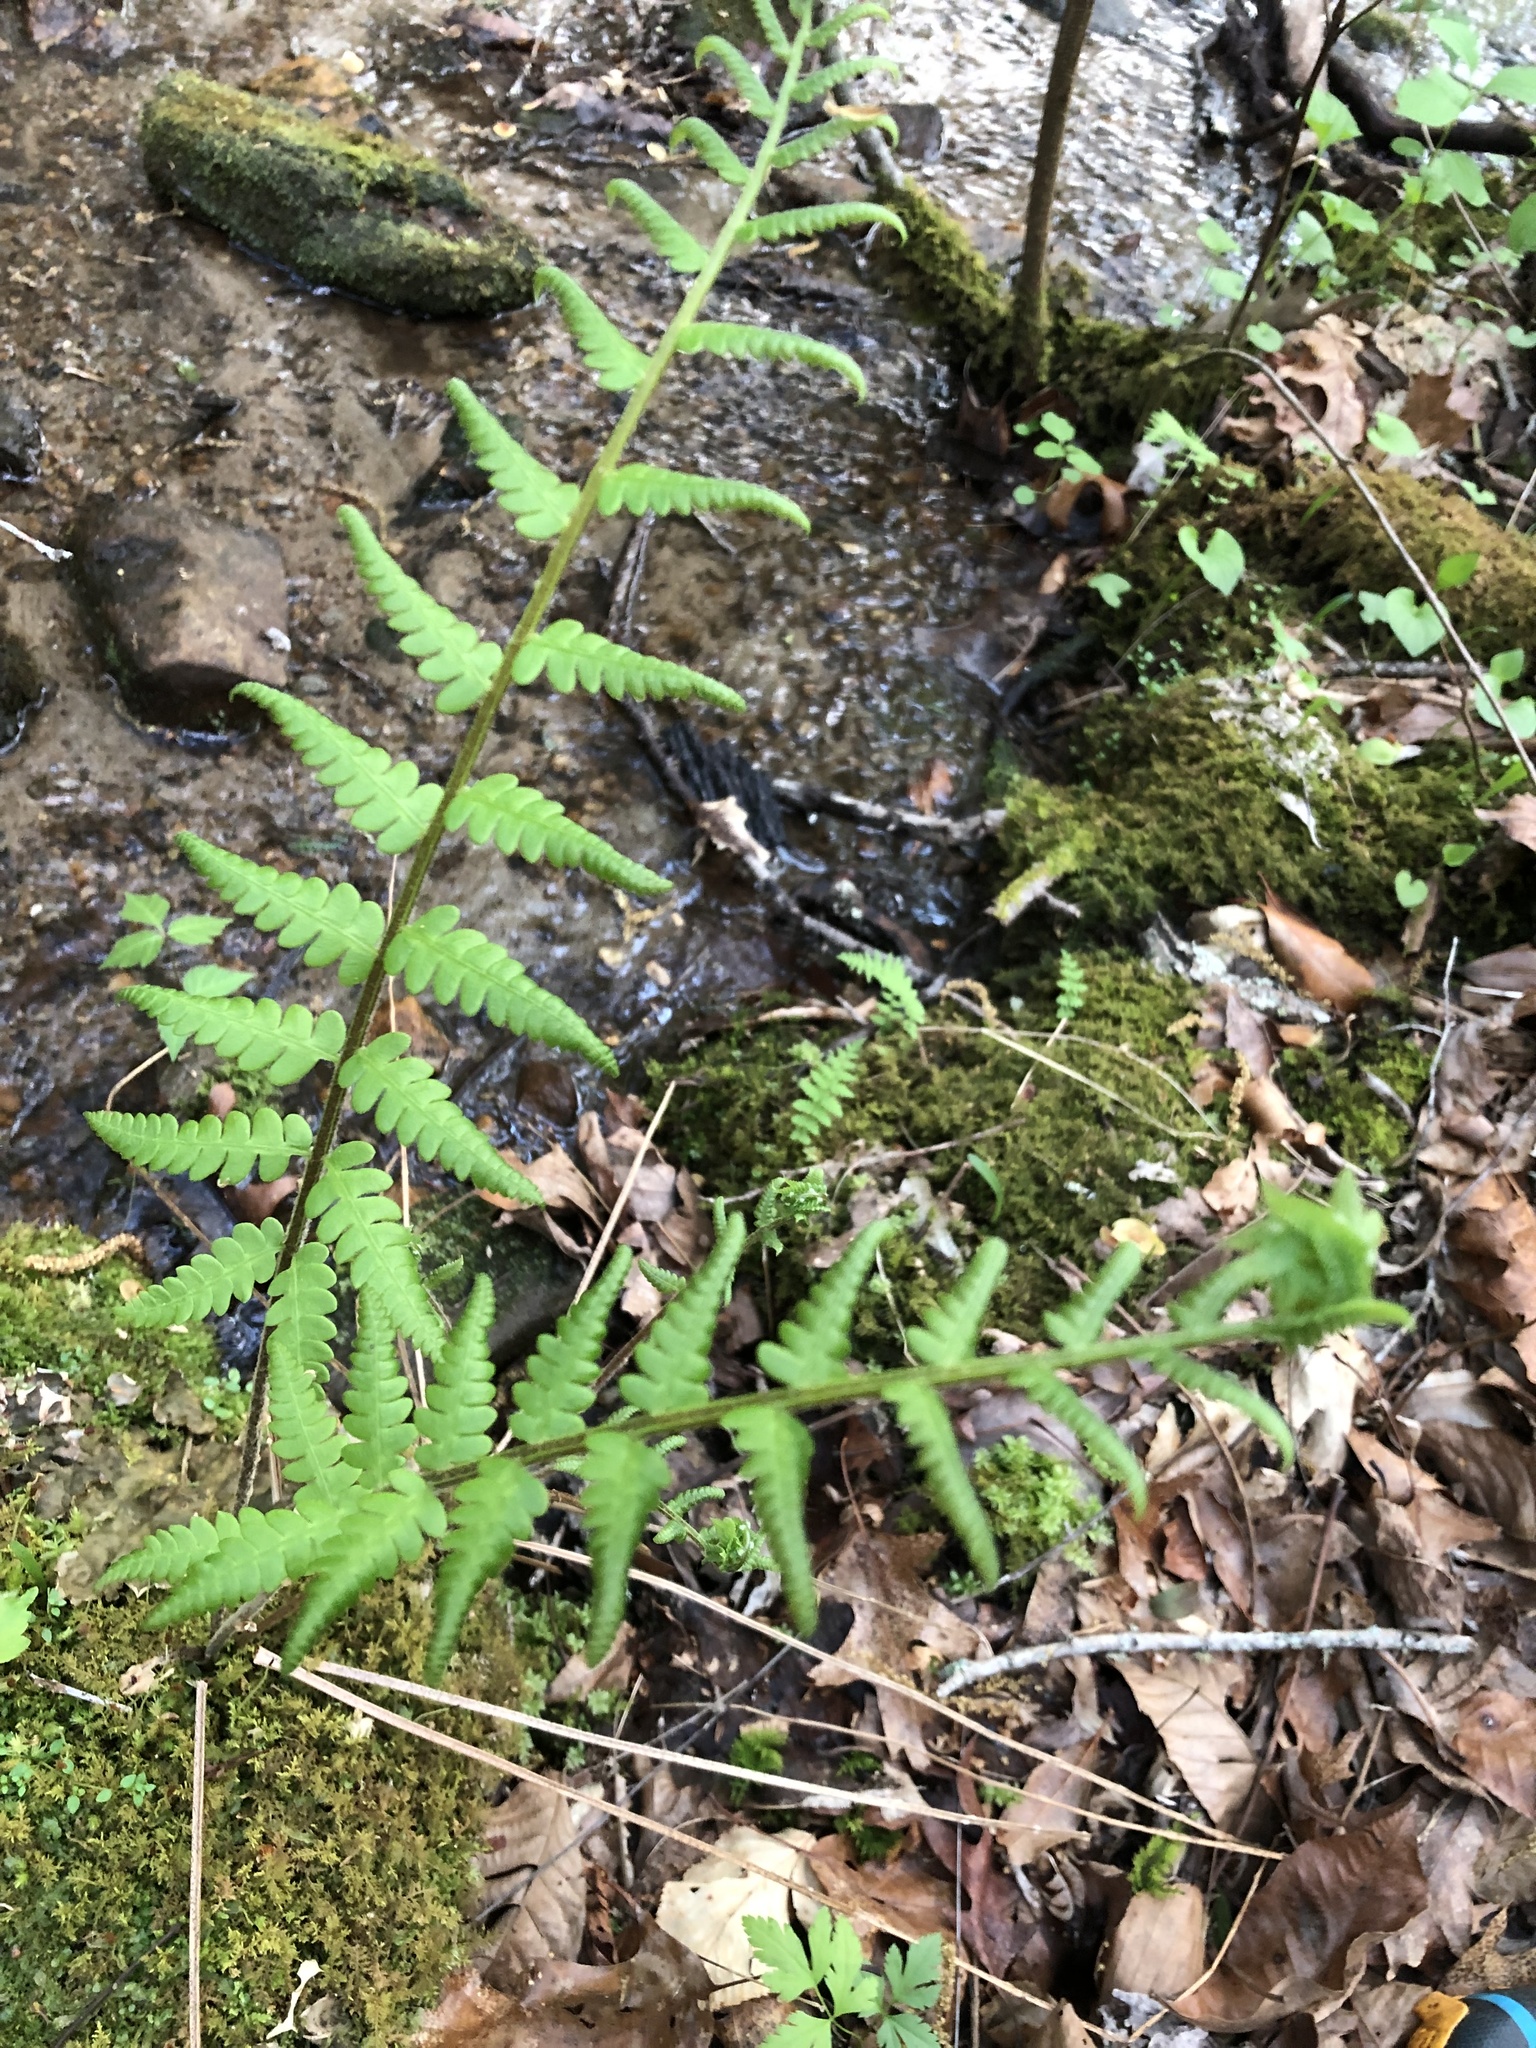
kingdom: Plantae
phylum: Tracheophyta
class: Polypodiopsida
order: Osmundales
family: Osmundaceae
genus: Osmundastrum
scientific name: Osmundastrum cinnamomeum
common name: Cinnamon fern
